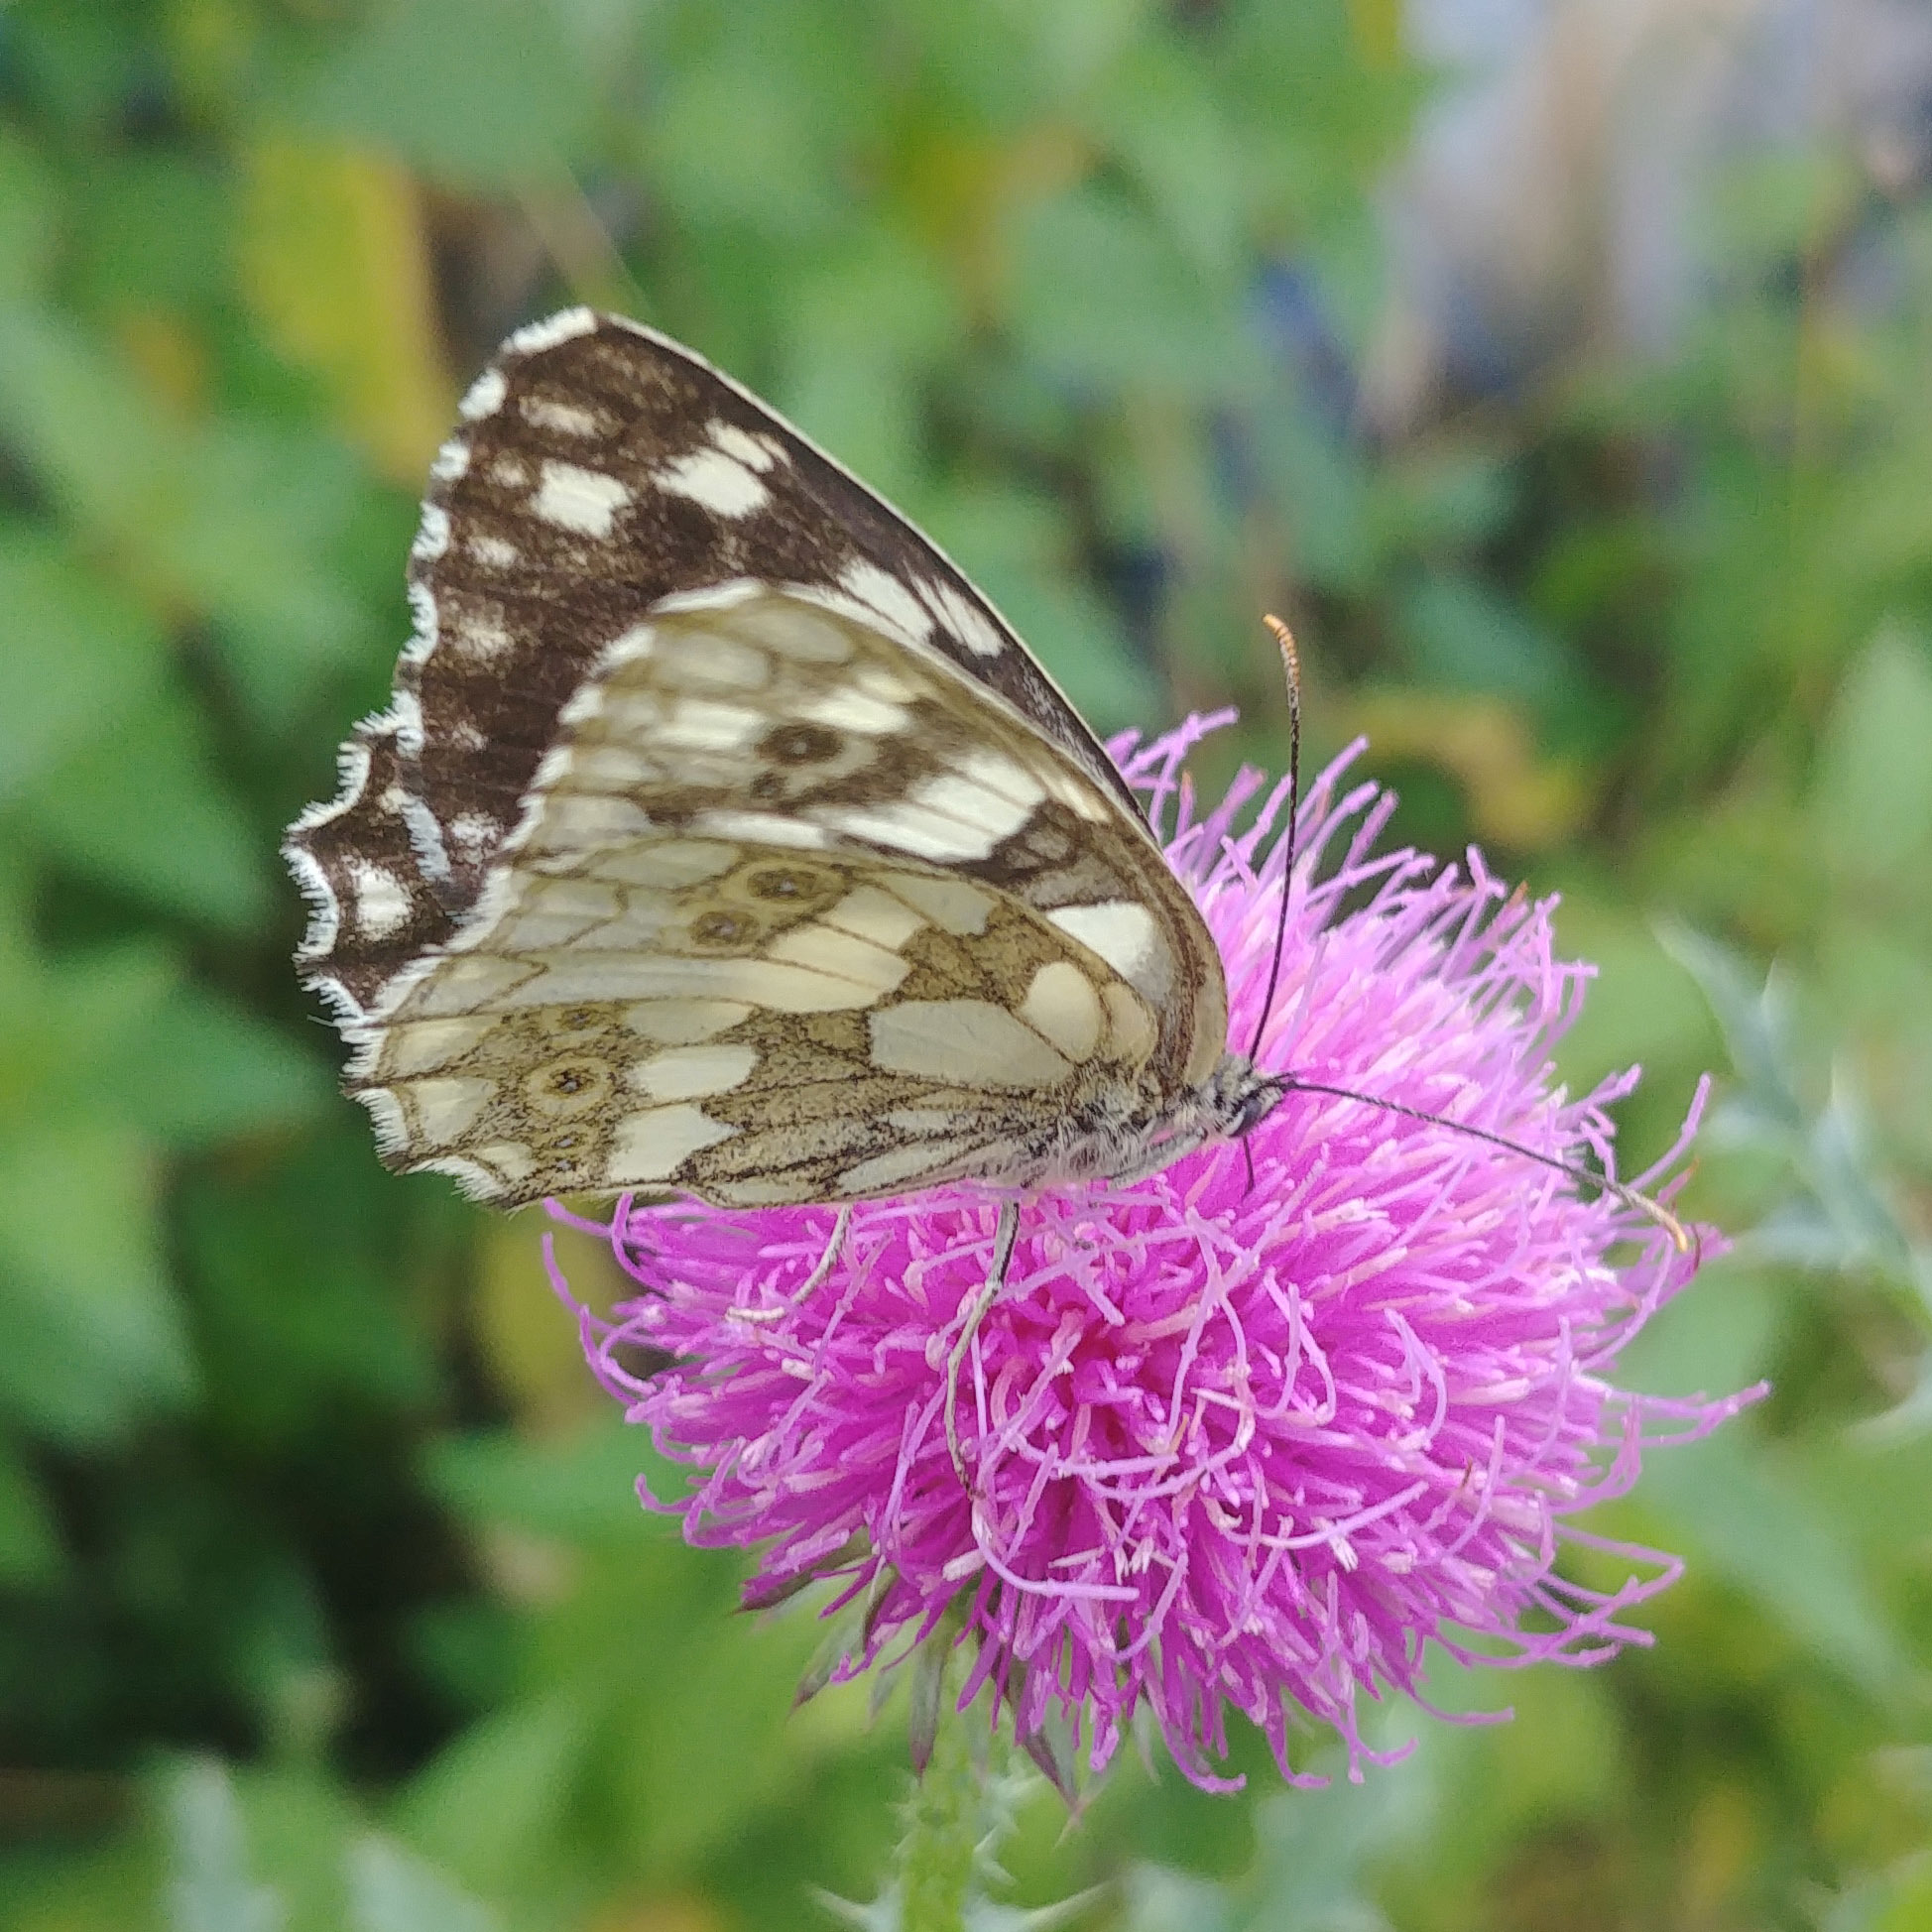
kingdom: Animalia
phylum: Arthropoda
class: Insecta
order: Lepidoptera
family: Nymphalidae
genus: Melanargia
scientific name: Melanargia galathea
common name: Marbled white
